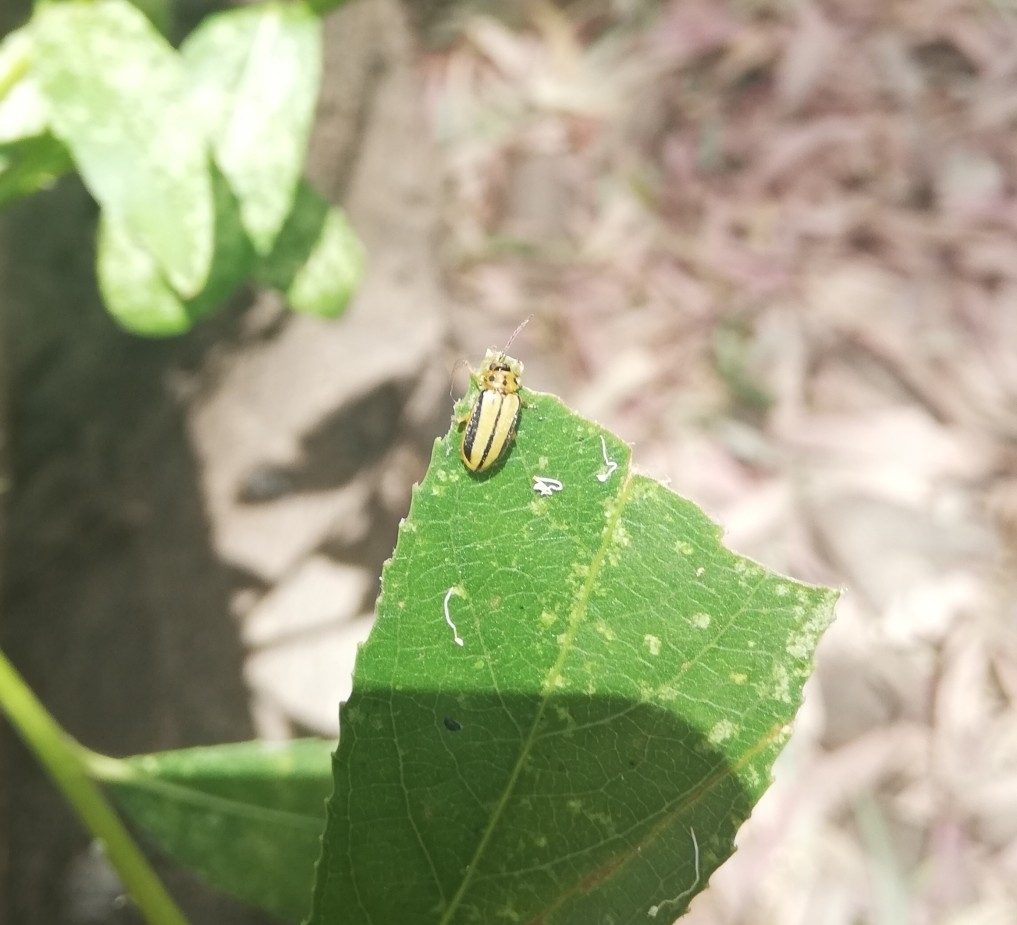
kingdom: Animalia
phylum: Arthropoda
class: Insecta
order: Coleoptera
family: Chrysomelidae
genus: Xanthogaleruca
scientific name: Xanthogaleruca luteola
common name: Elm leaf beetle
